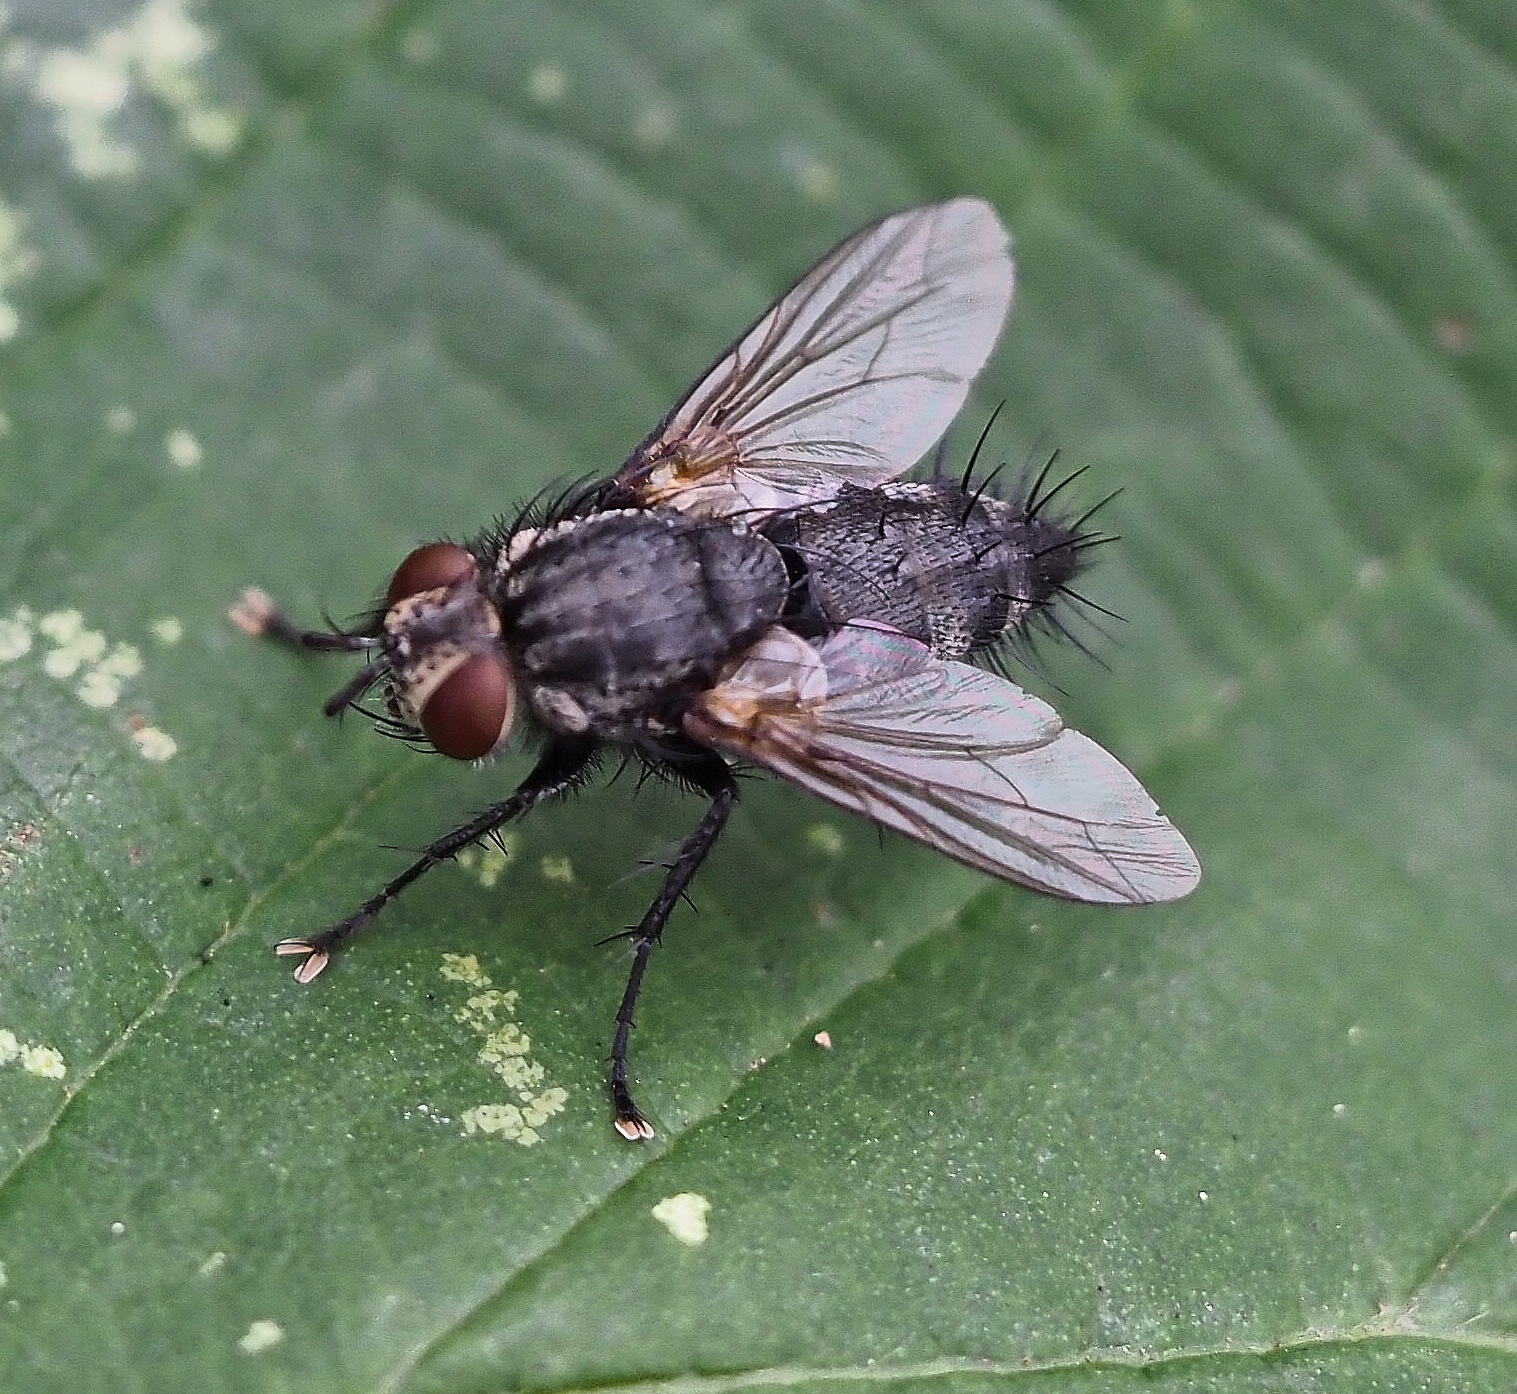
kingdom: Animalia
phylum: Arthropoda
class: Insecta
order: Diptera
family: Tachinidae
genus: Voria
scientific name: Voria ruralis
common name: Parasitic fly
